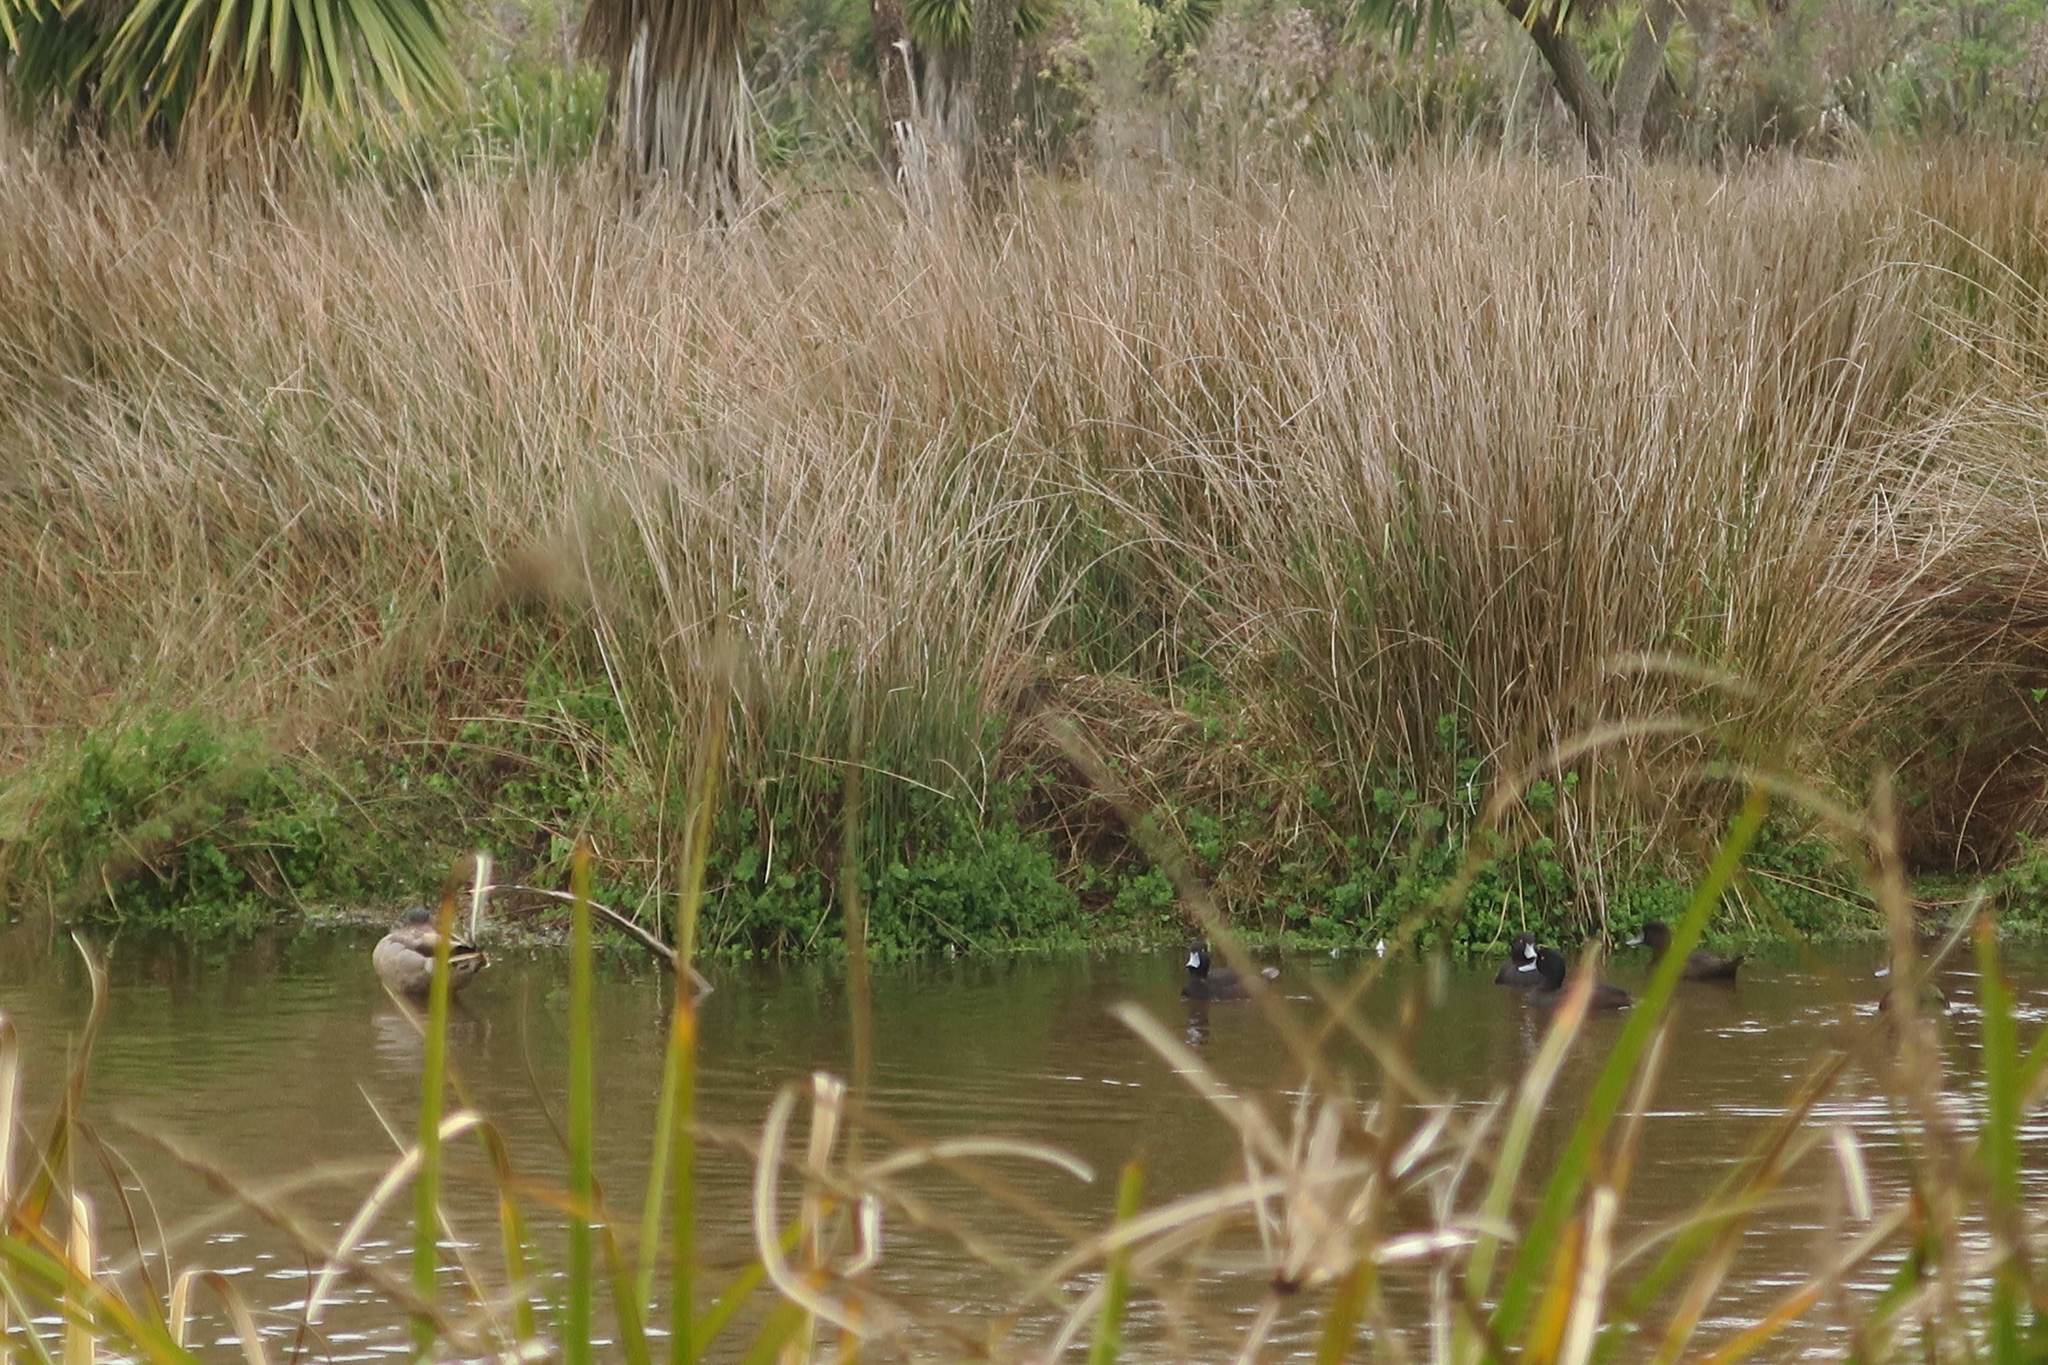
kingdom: Animalia
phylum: Chordata
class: Aves
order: Anseriformes
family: Anatidae
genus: Aythya
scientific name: Aythya novaeseelandiae
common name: New zealand scaup
